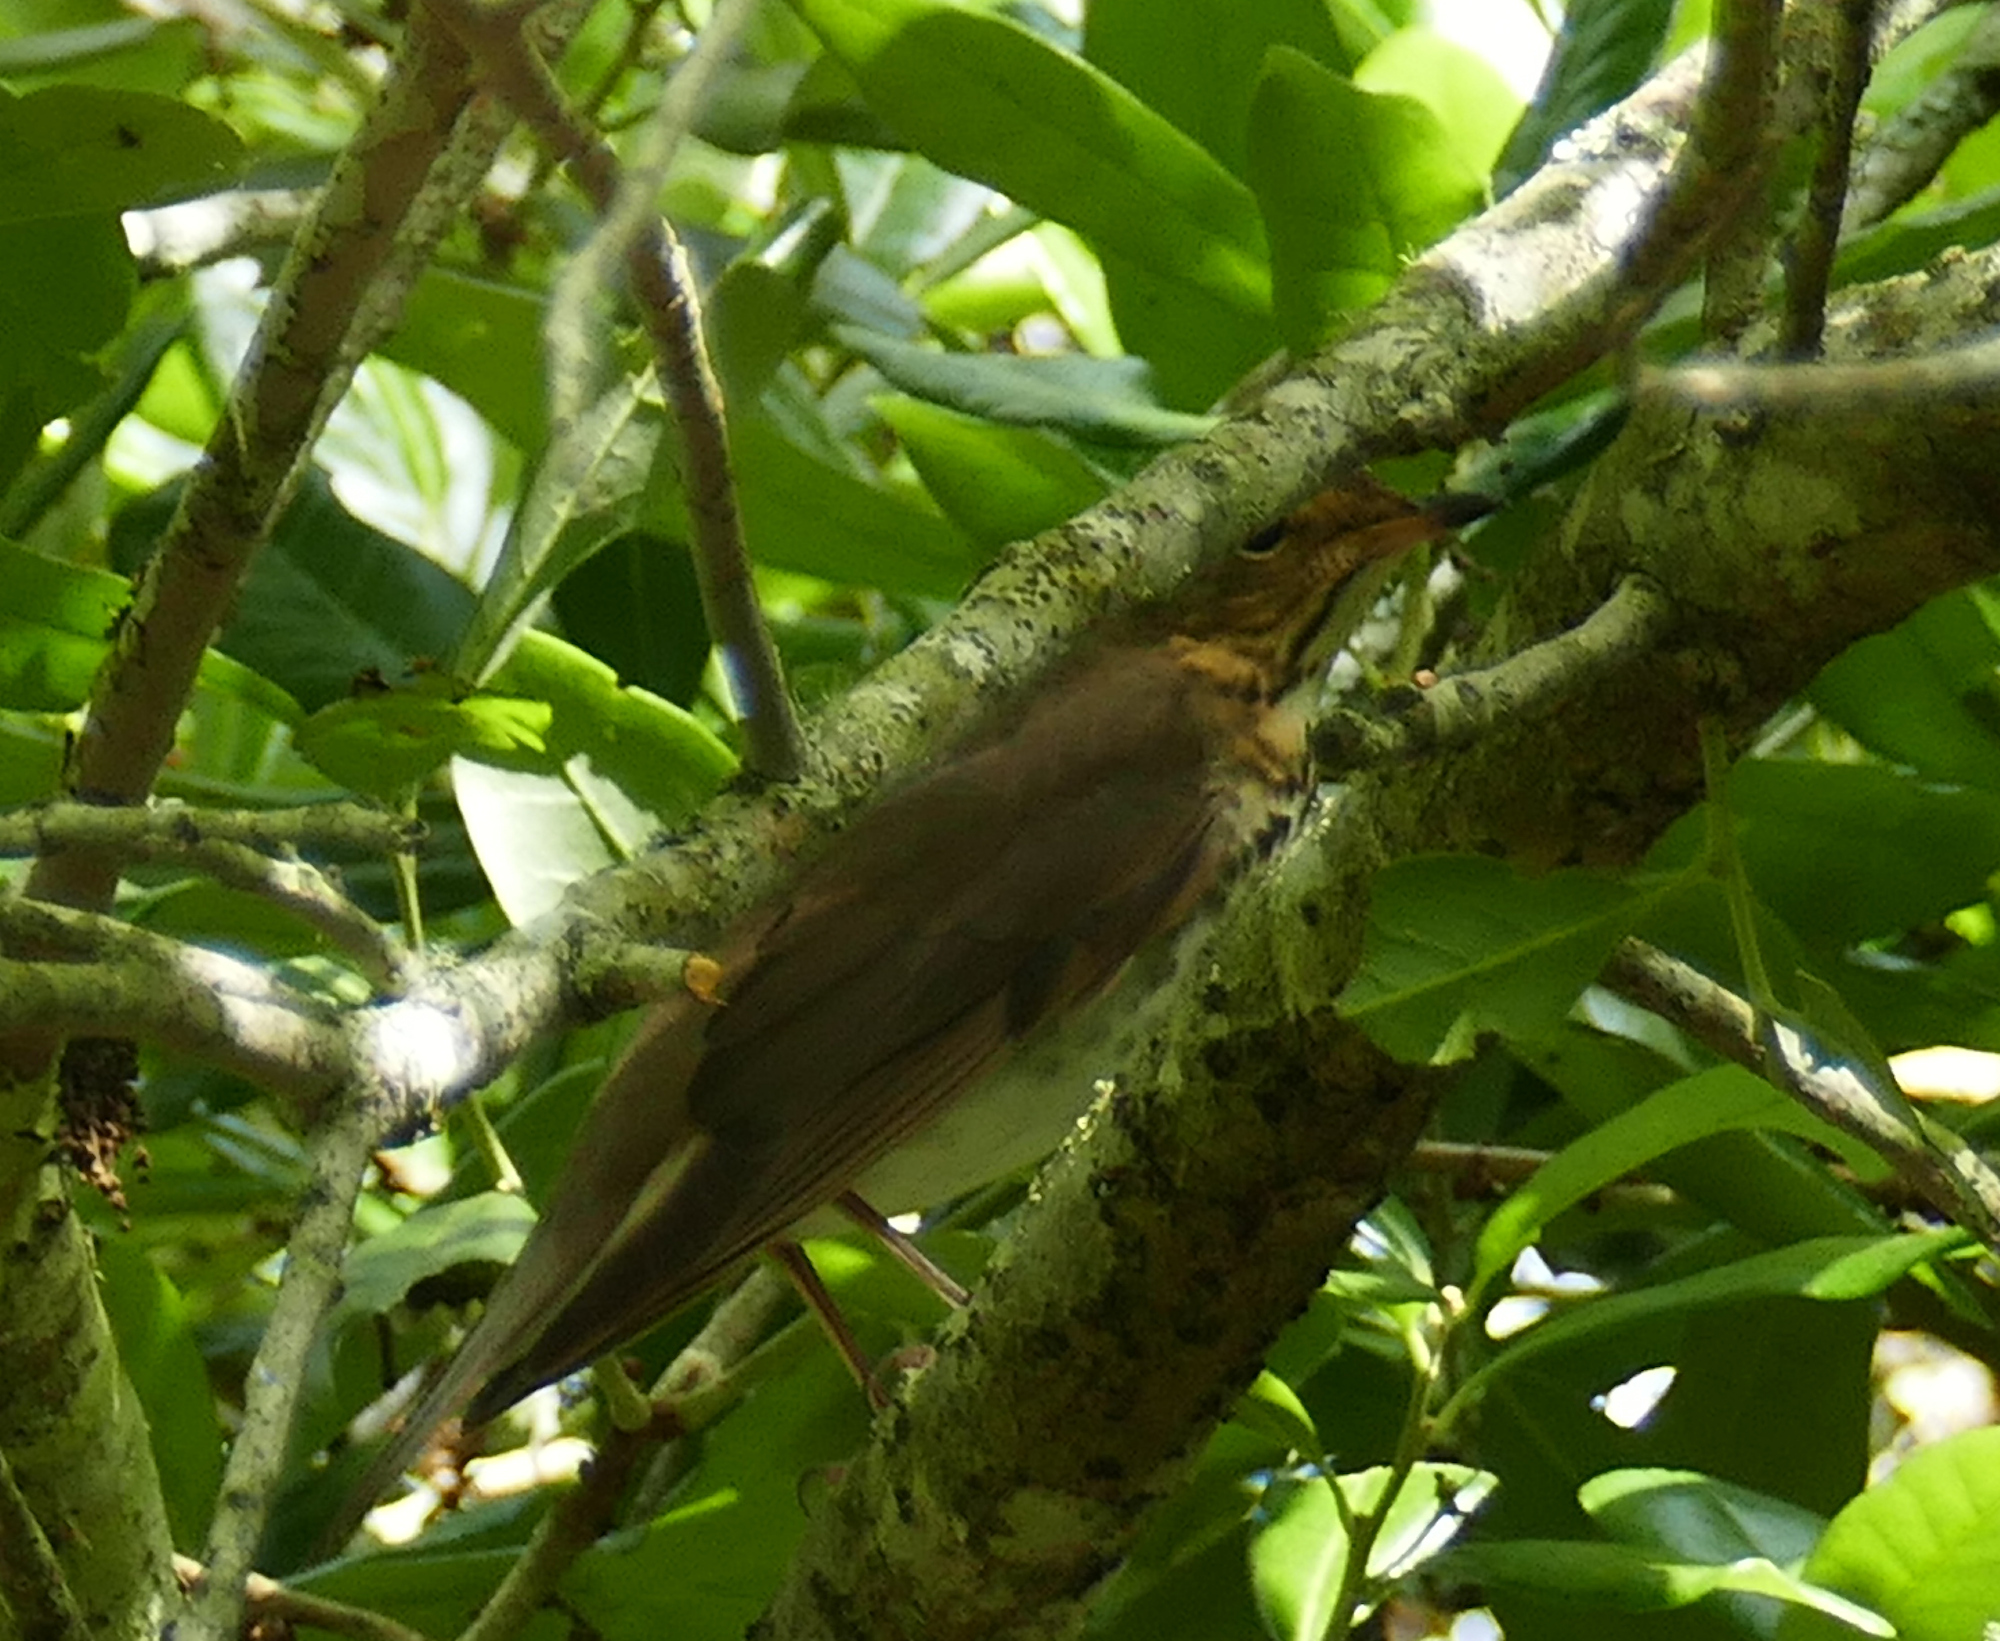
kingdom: Animalia
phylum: Chordata
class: Aves
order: Passeriformes
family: Turdidae
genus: Catharus
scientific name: Catharus ustulatus
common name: Swainson's thrush
